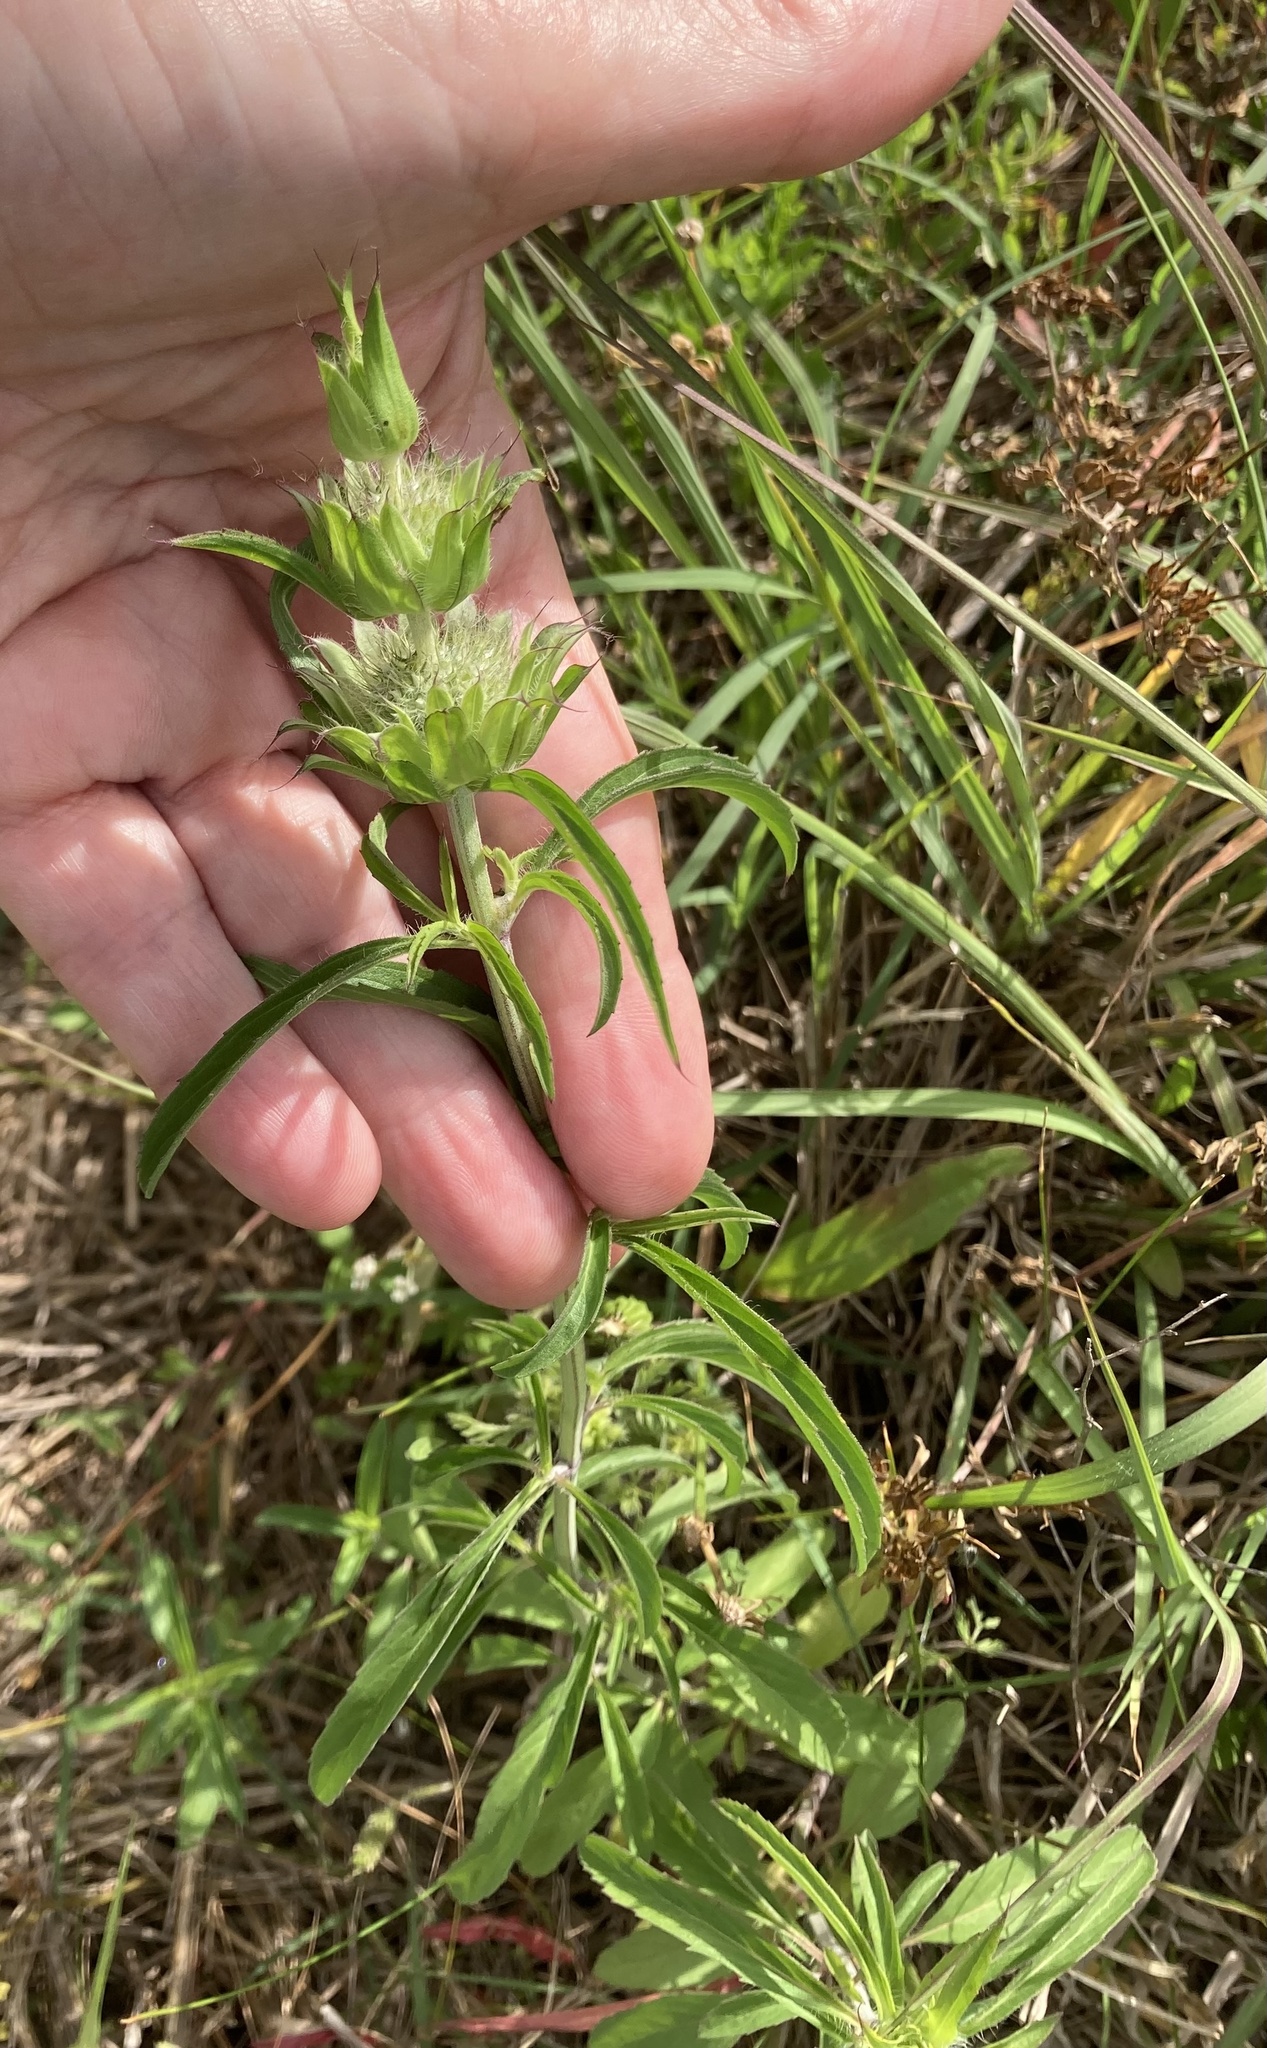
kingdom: Plantae
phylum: Tracheophyta
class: Magnoliopsida
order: Lamiales
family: Lamiaceae
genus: Monarda
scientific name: Monarda citriodora
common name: Lemon beebalm
